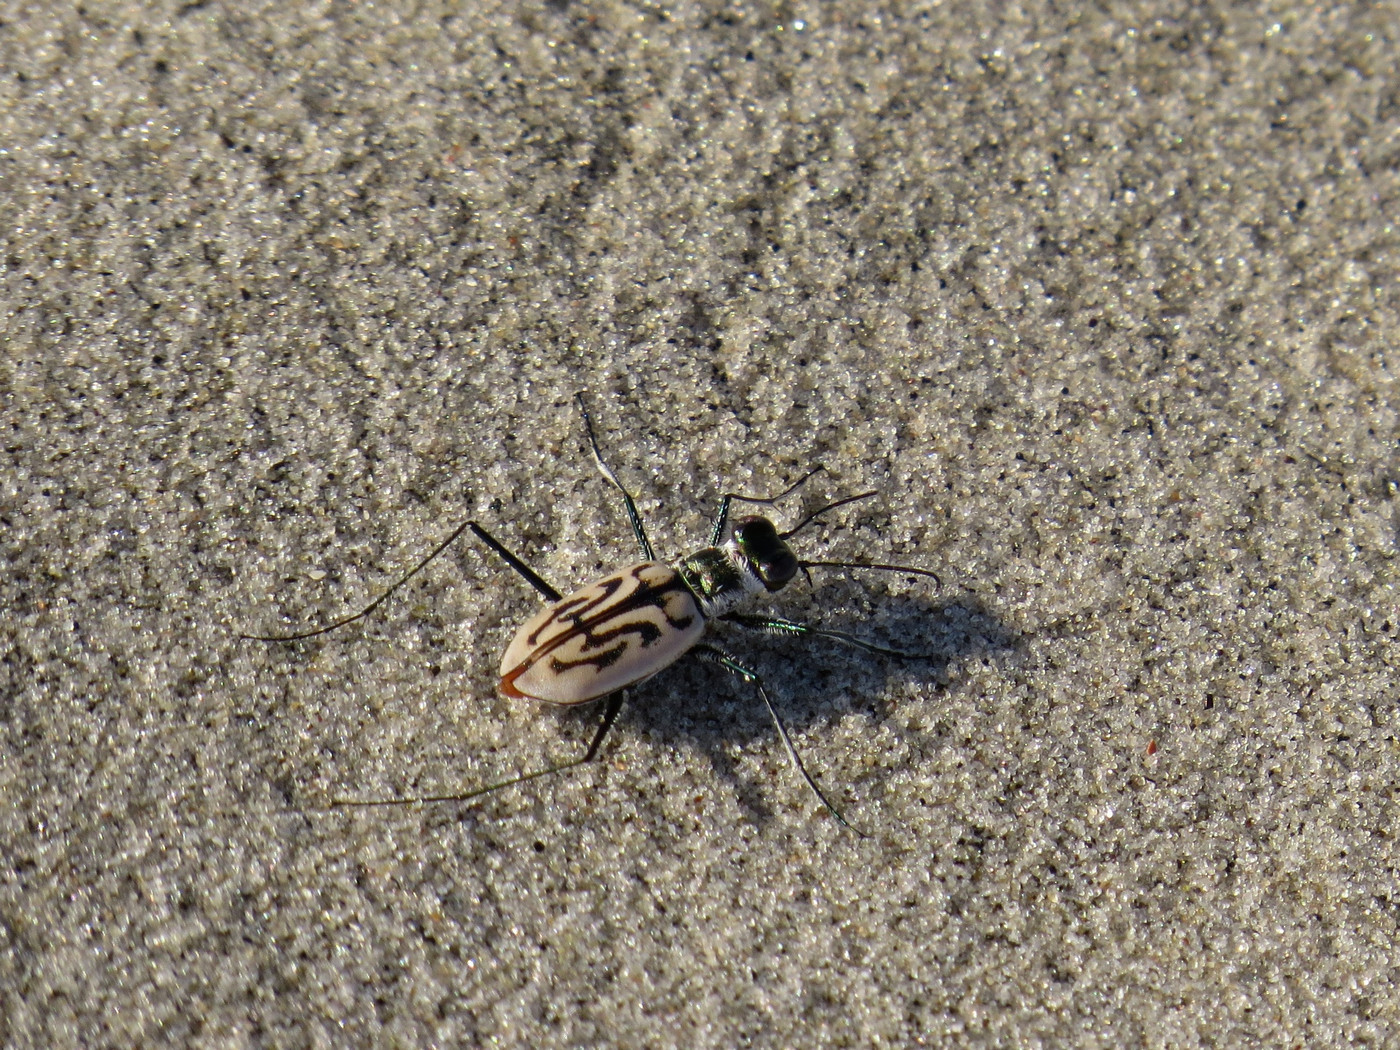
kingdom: Animalia
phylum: Arthropoda
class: Insecta
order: Coleoptera
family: Carabidae
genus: Habroscelimorpha
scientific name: Habroscelimorpha dorsalis
